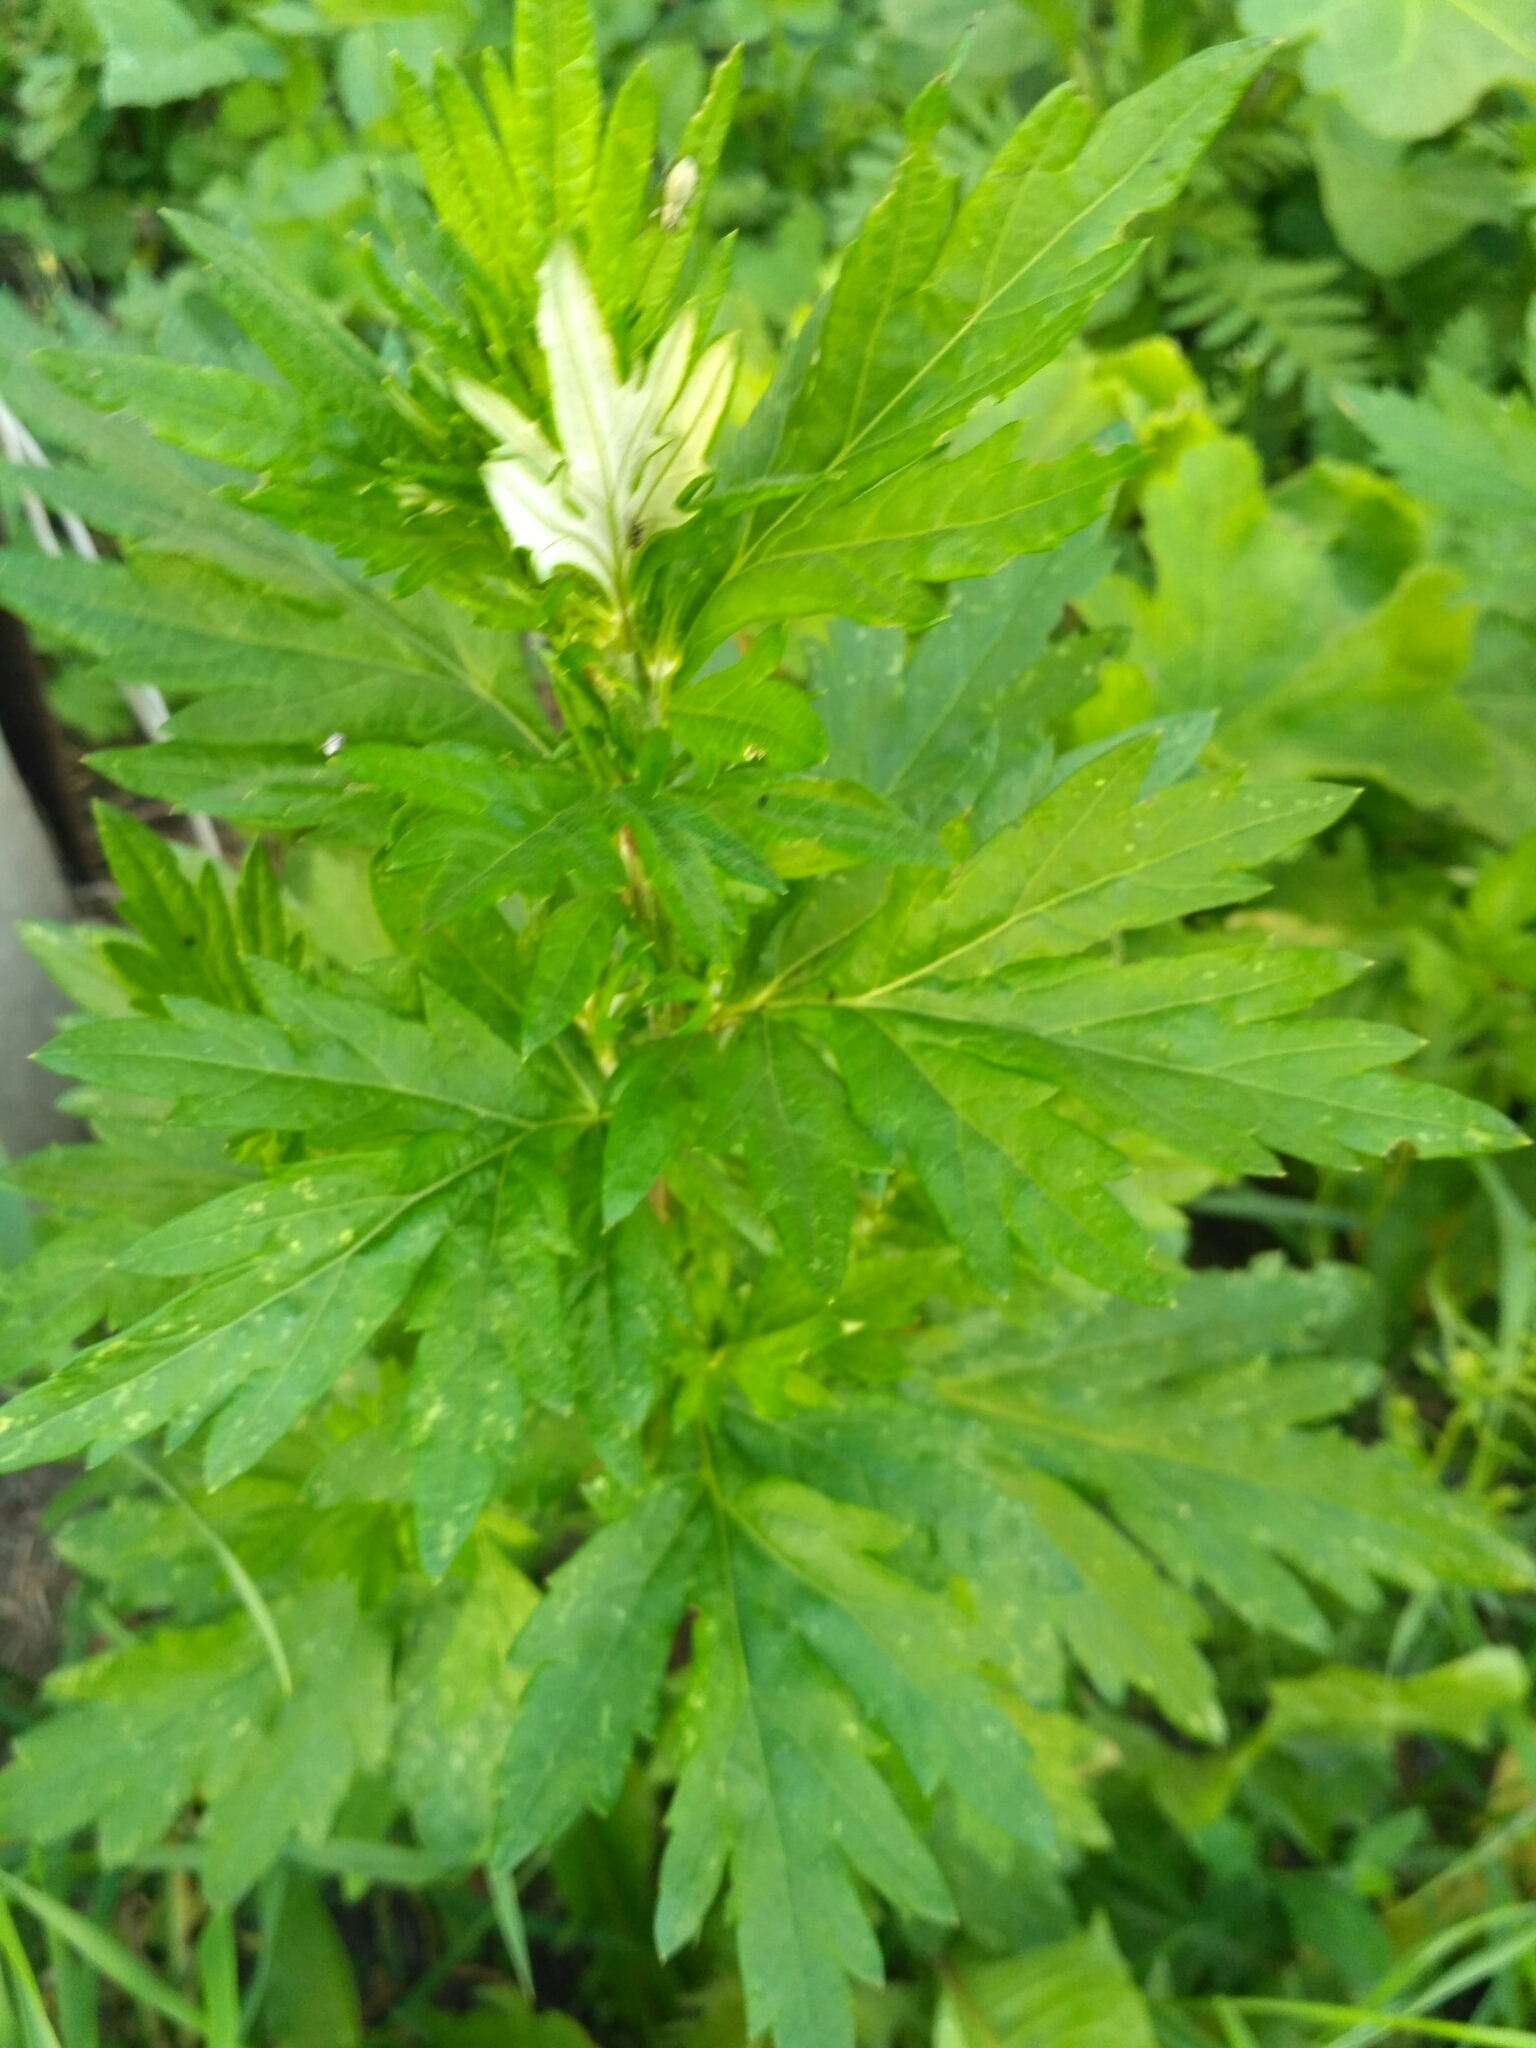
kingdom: Plantae
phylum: Tracheophyta
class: Magnoliopsida
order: Asterales
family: Asteraceae
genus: Artemisia
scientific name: Artemisia vulgaris
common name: Mugwort
